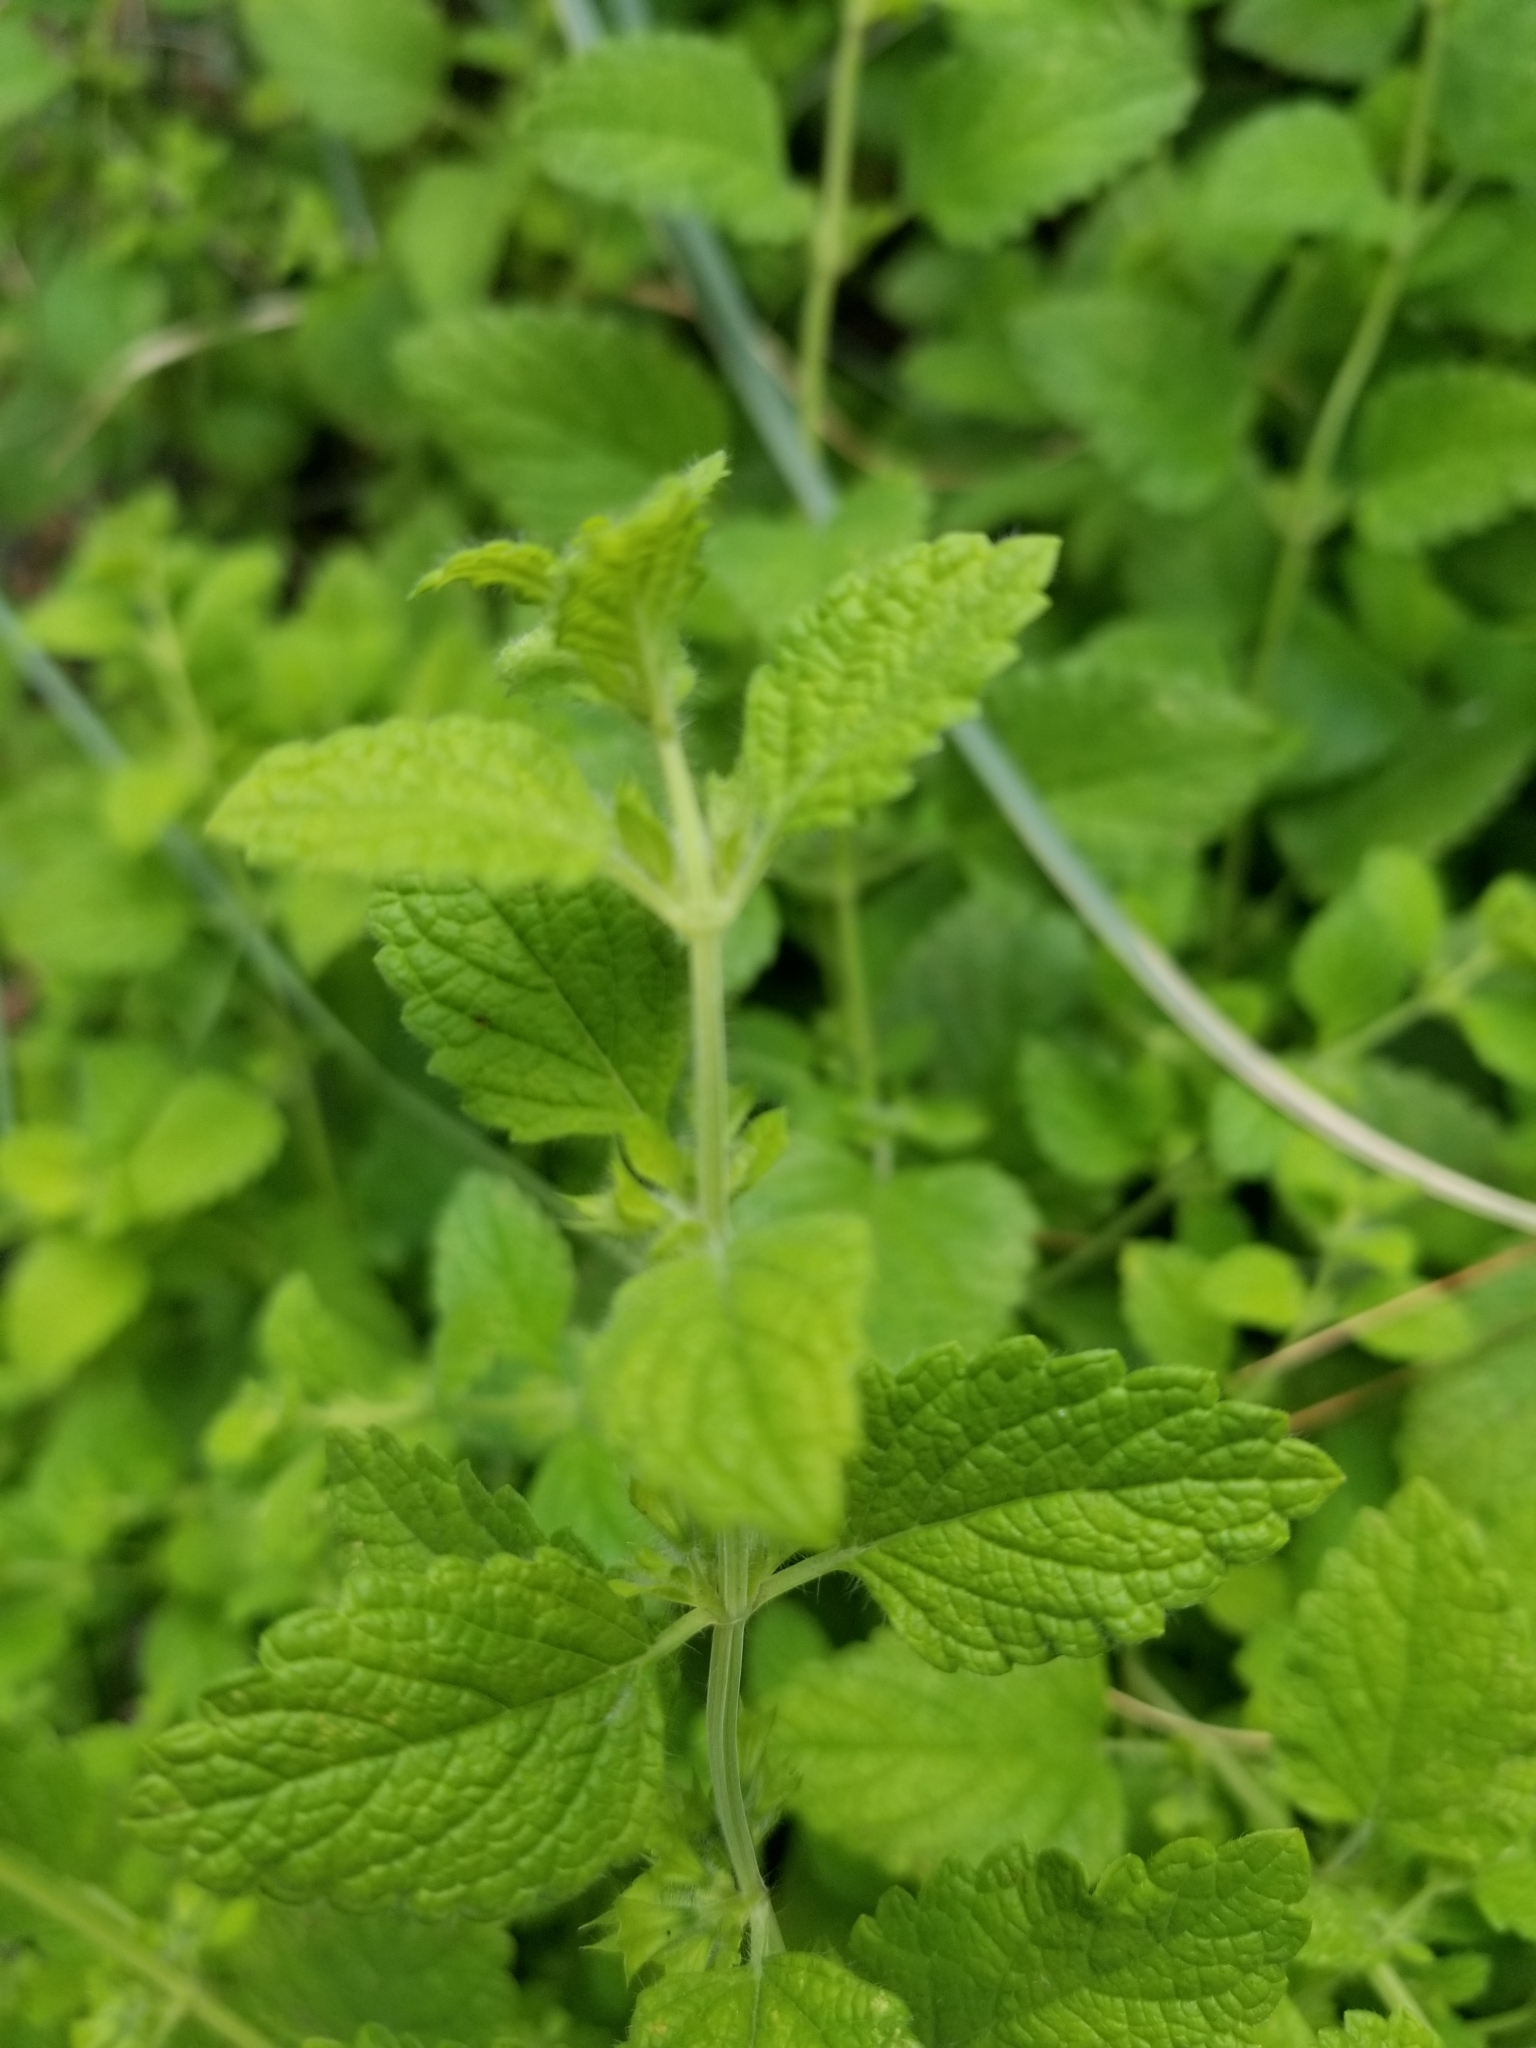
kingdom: Plantae
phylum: Tracheophyta
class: Magnoliopsida
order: Lamiales
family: Lamiaceae
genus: Melissa
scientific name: Melissa officinalis
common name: Balm
